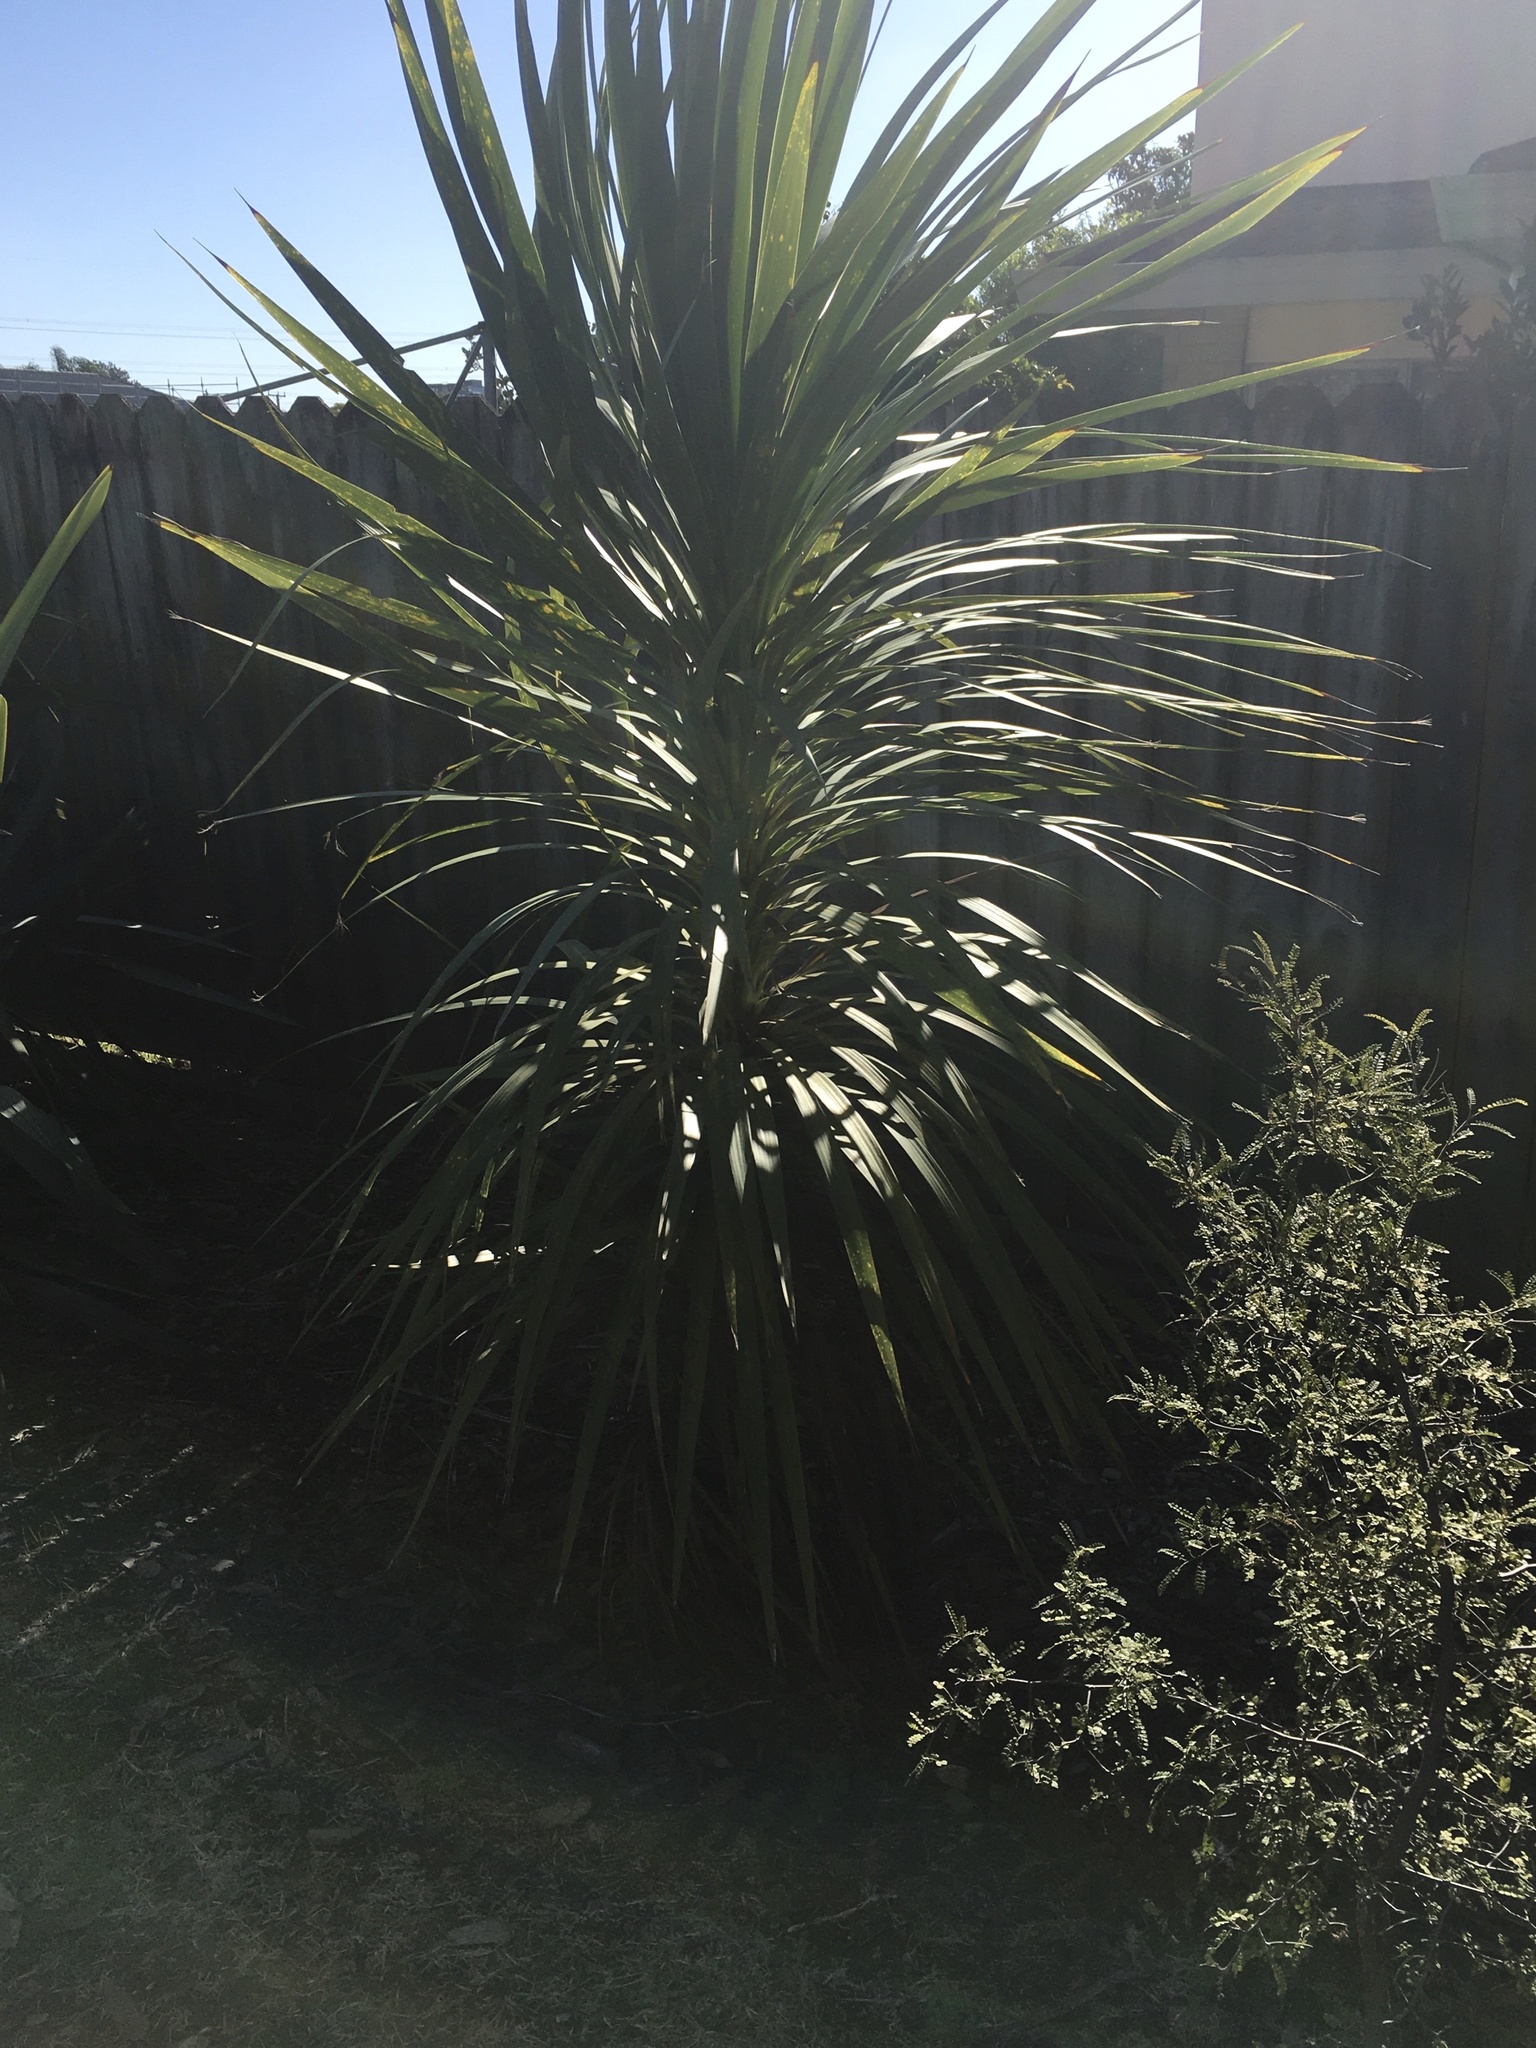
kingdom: Plantae
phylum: Tracheophyta
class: Liliopsida
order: Asparagales
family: Asparagaceae
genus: Cordyline
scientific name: Cordyline australis
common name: Cabbage-palm
